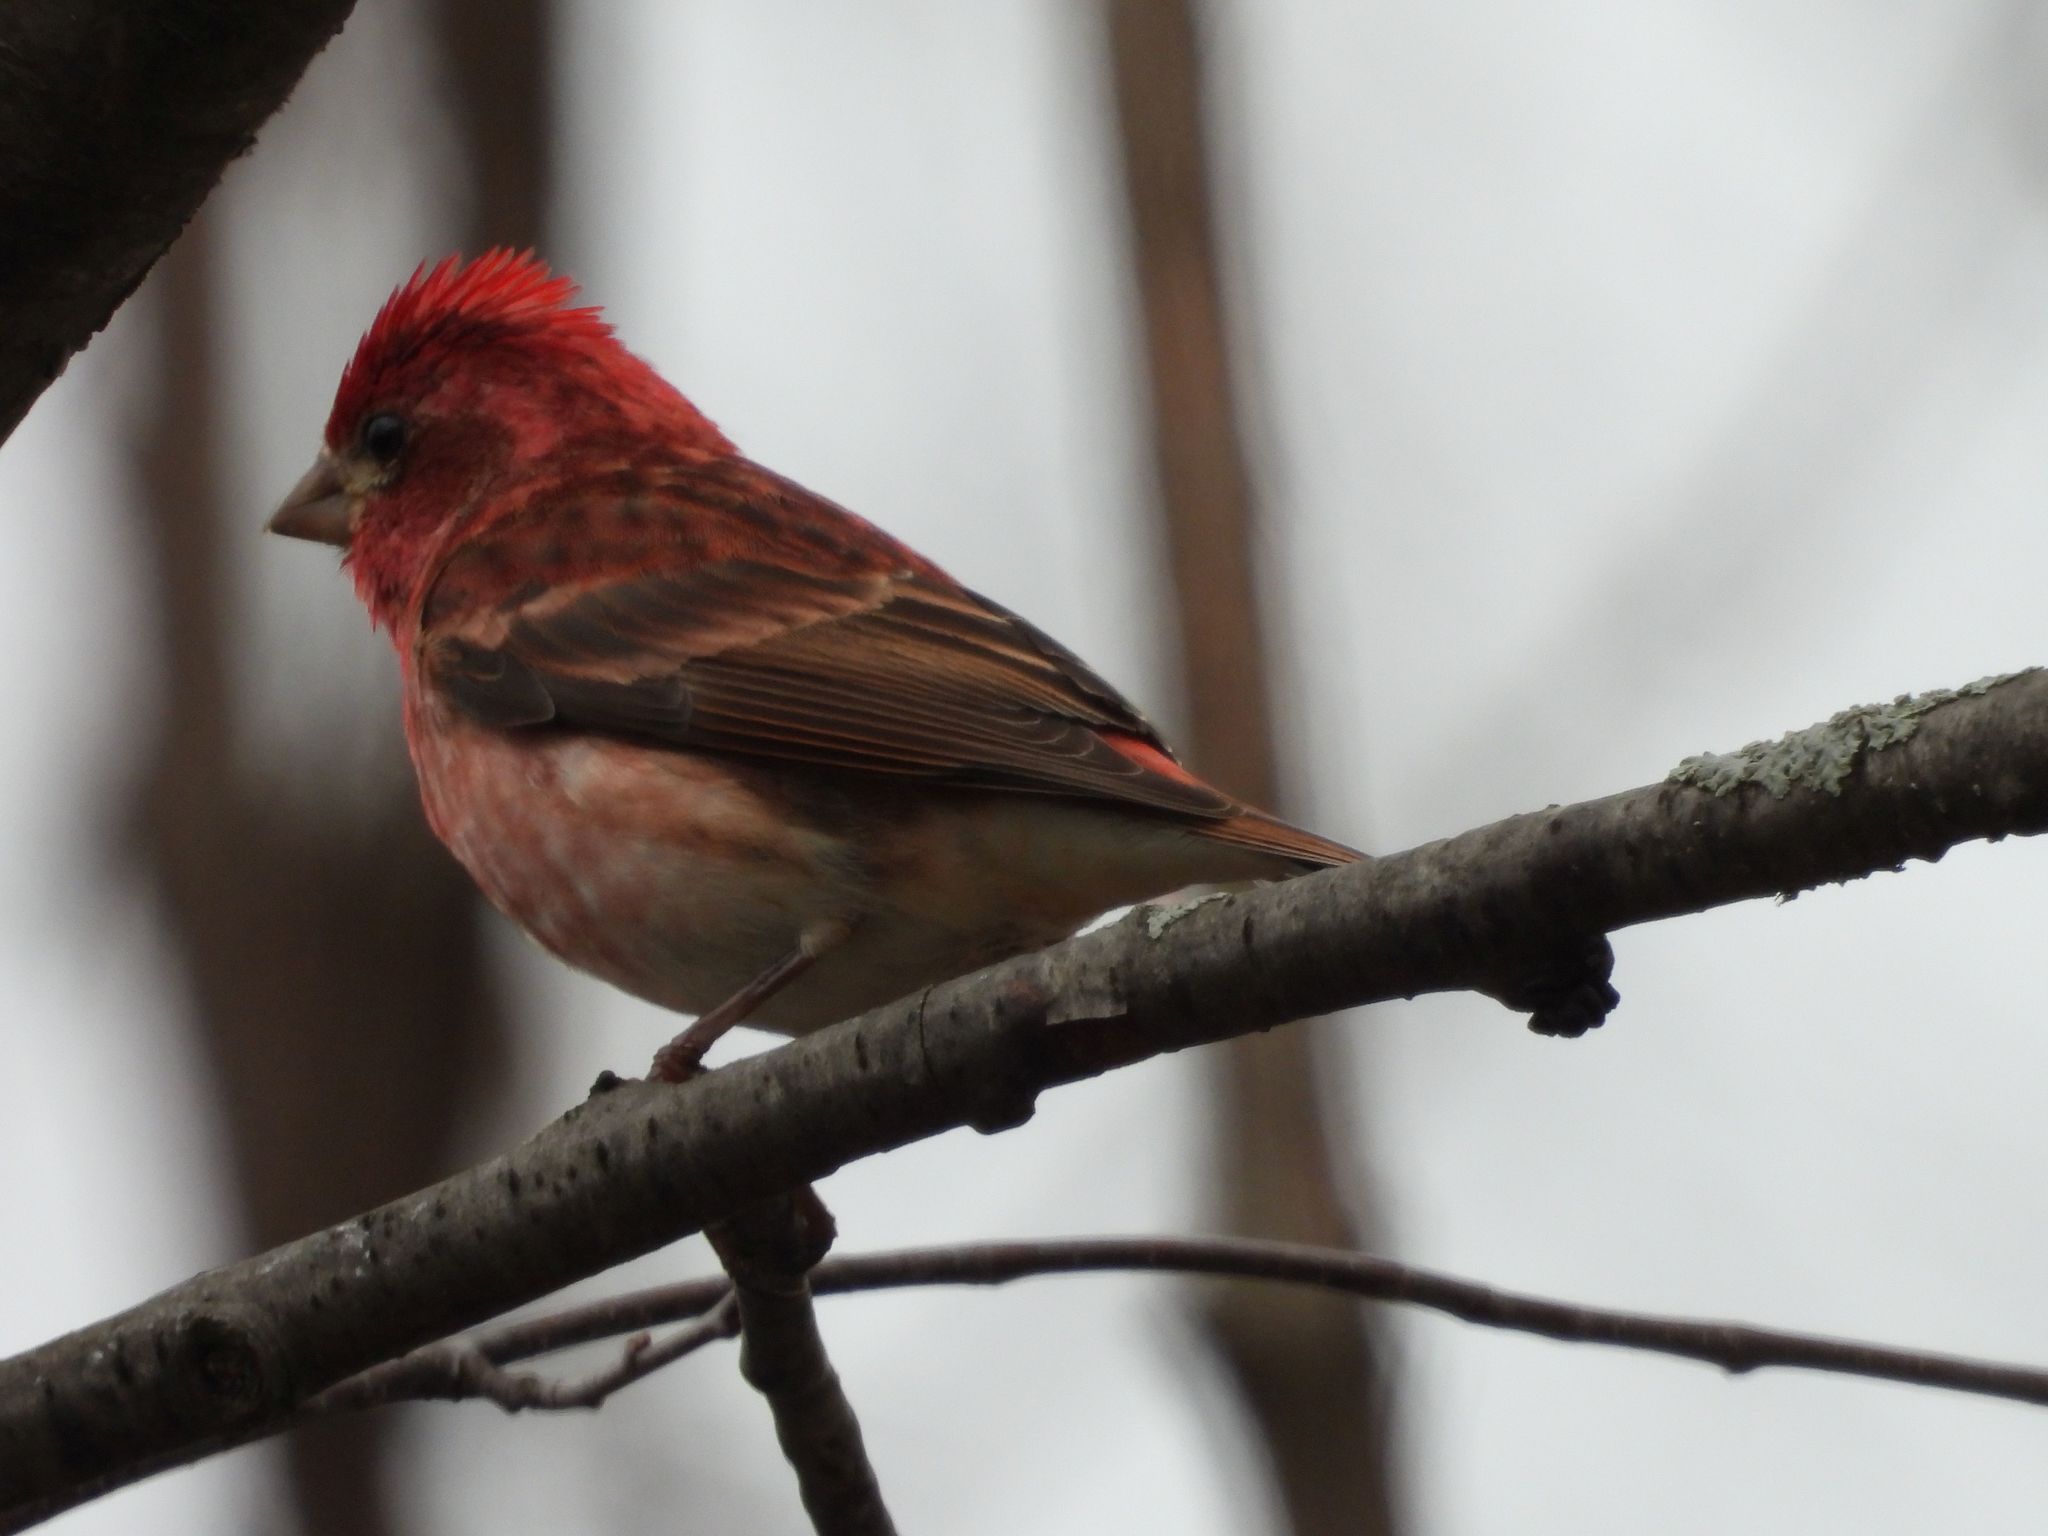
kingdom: Animalia
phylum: Chordata
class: Aves
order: Passeriformes
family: Fringillidae
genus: Haemorhous
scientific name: Haemorhous purpureus
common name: Purple finch
